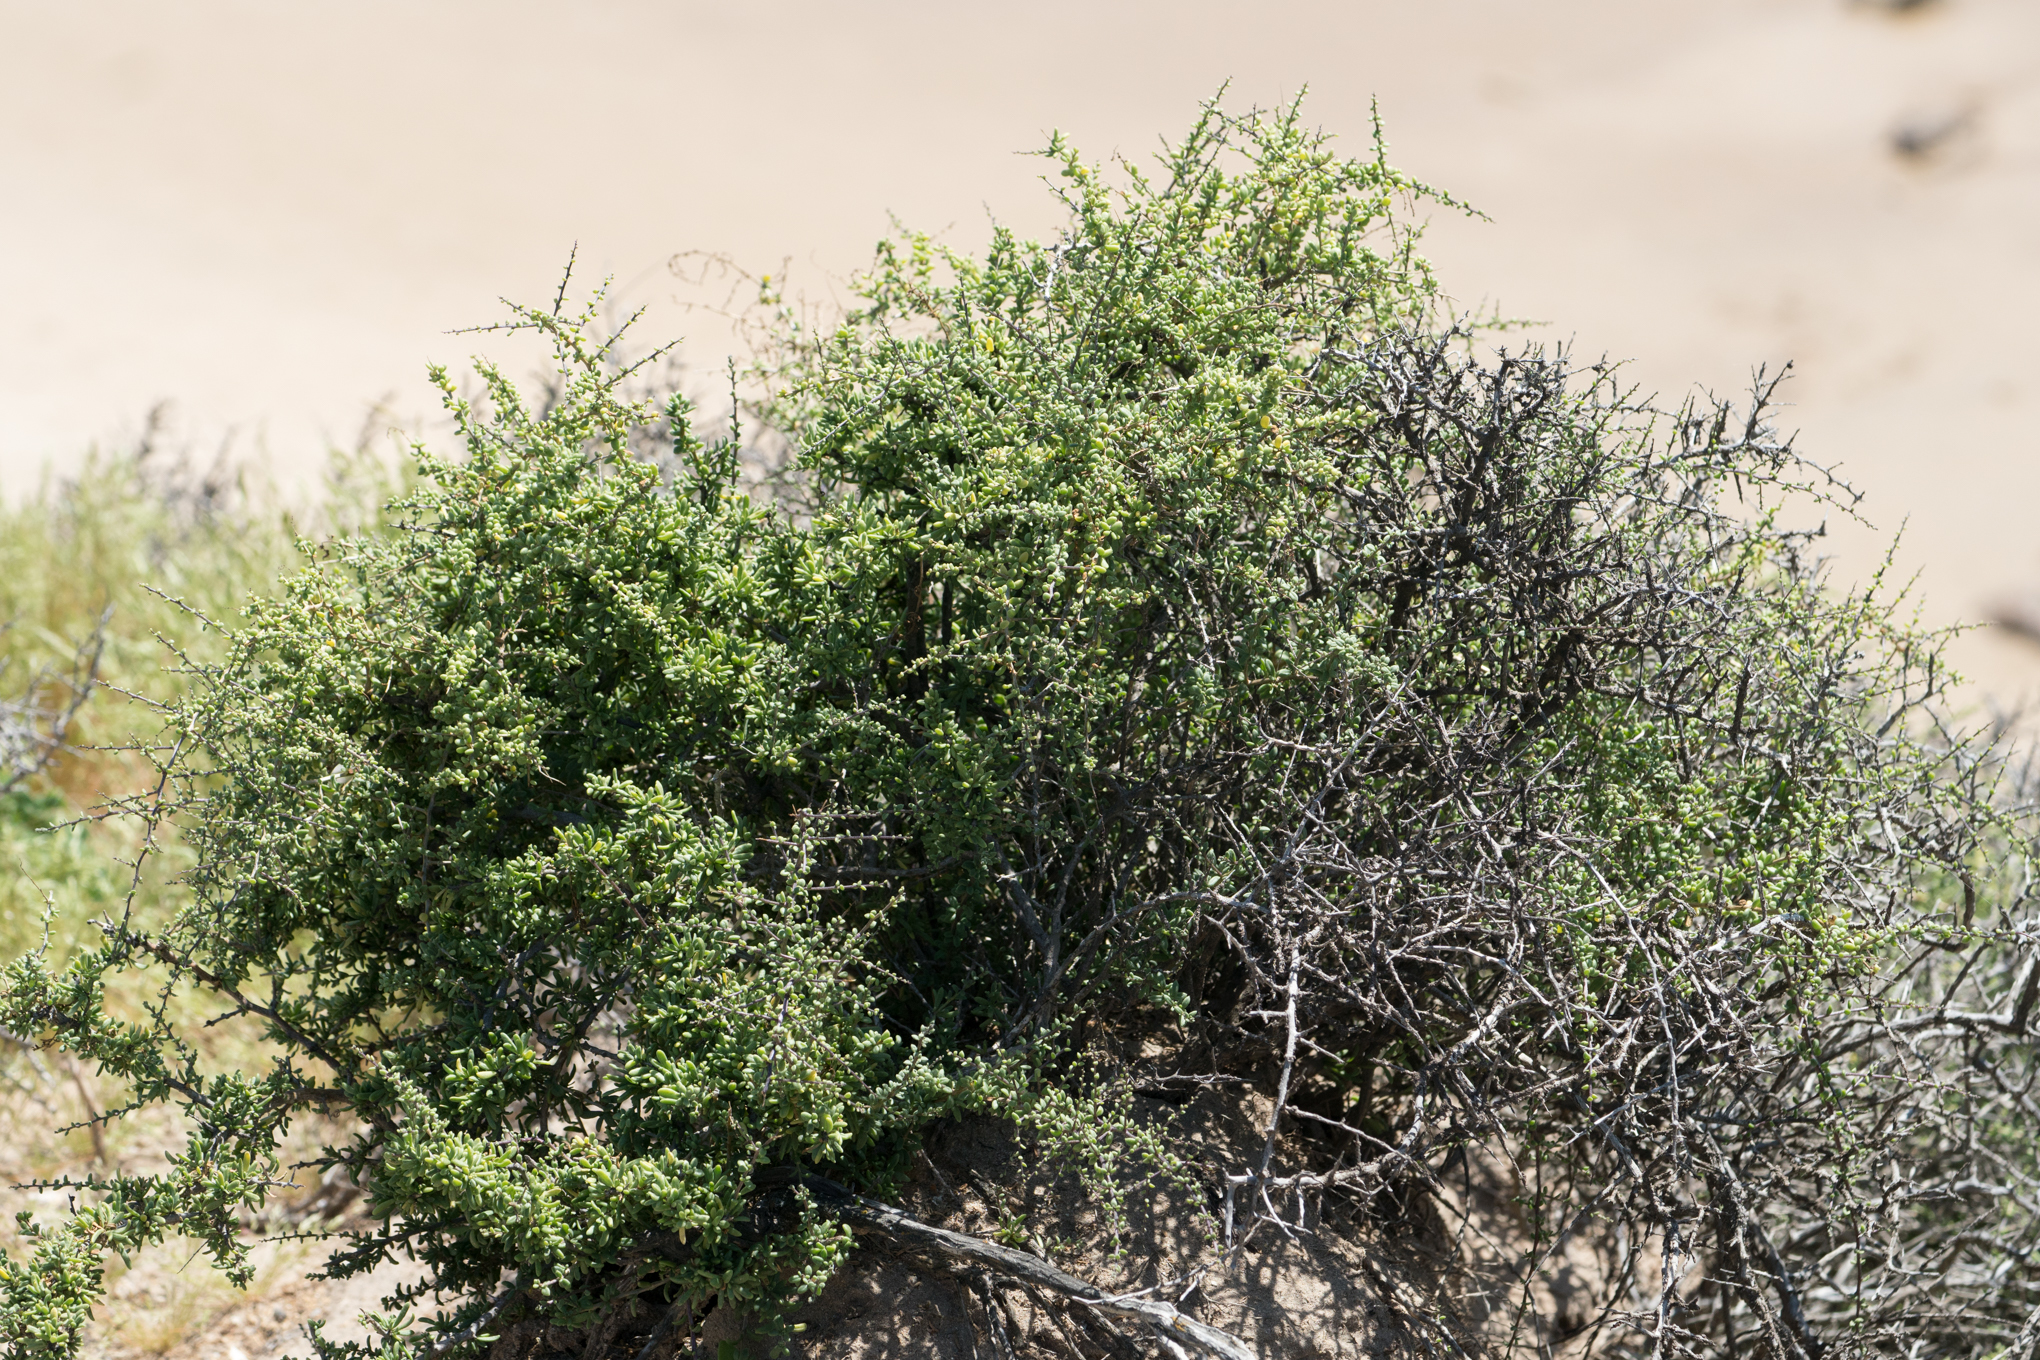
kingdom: Plantae
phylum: Tracheophyta
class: Magnoliopsida
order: Solanales
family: Solanaceae
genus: Lycium
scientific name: Lycium californicum
